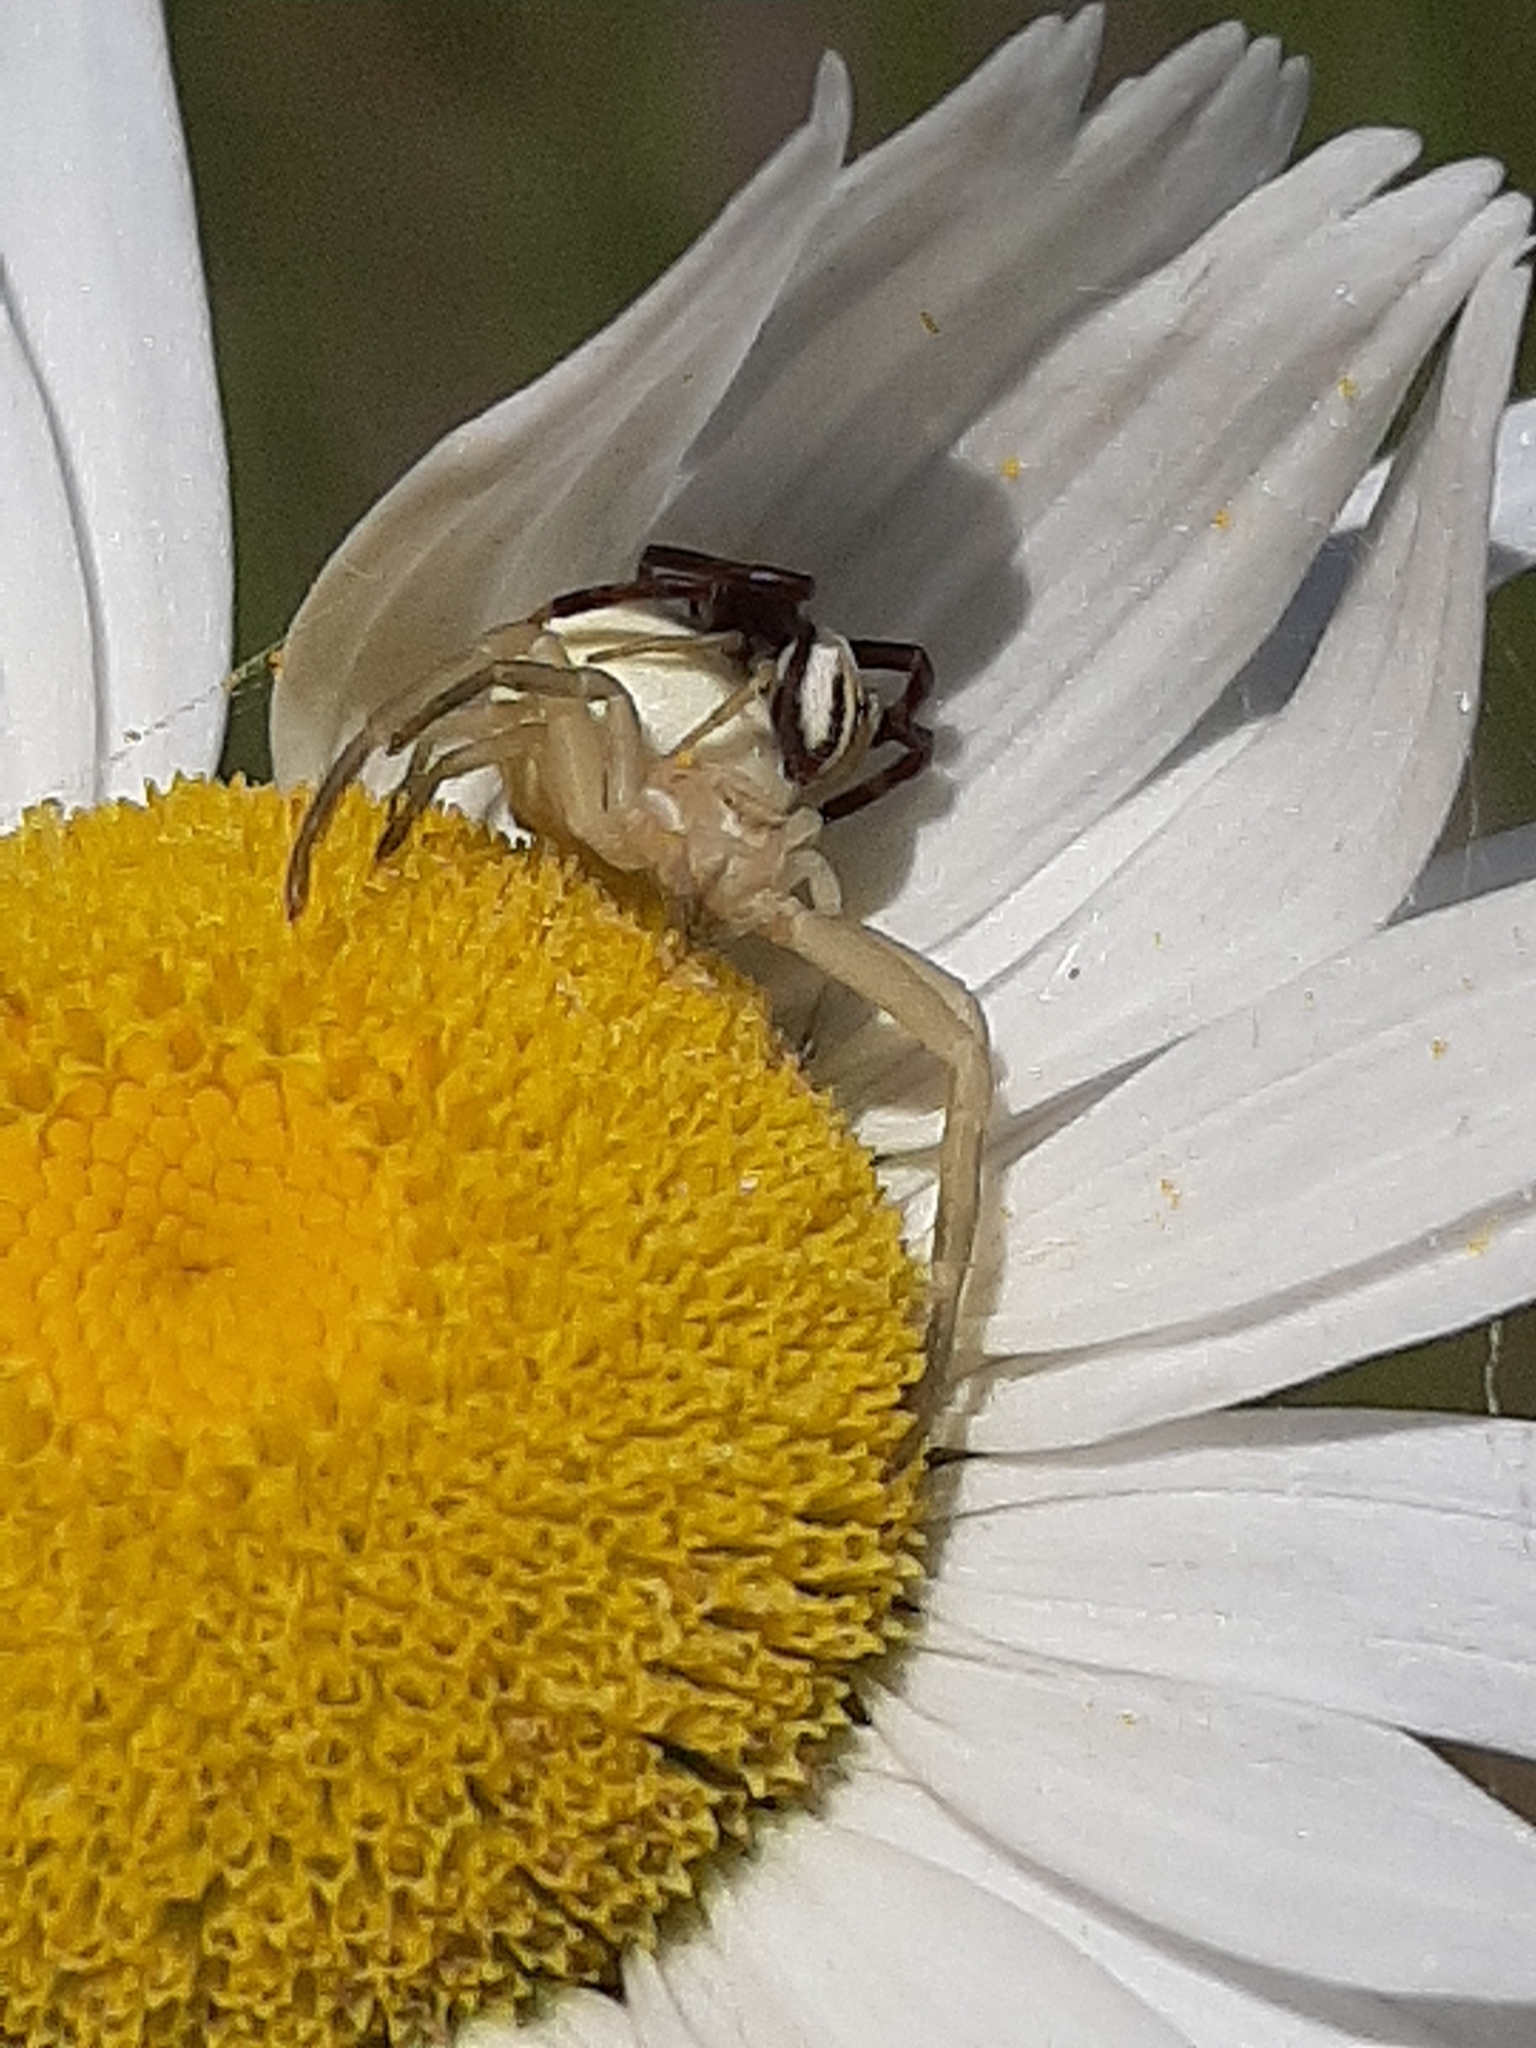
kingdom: Animalia
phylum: Arthropoda
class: Arachnida
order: Araneae
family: Thomisidae
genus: Misumena
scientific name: Misumena vatia
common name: Goldenrod crab spider
